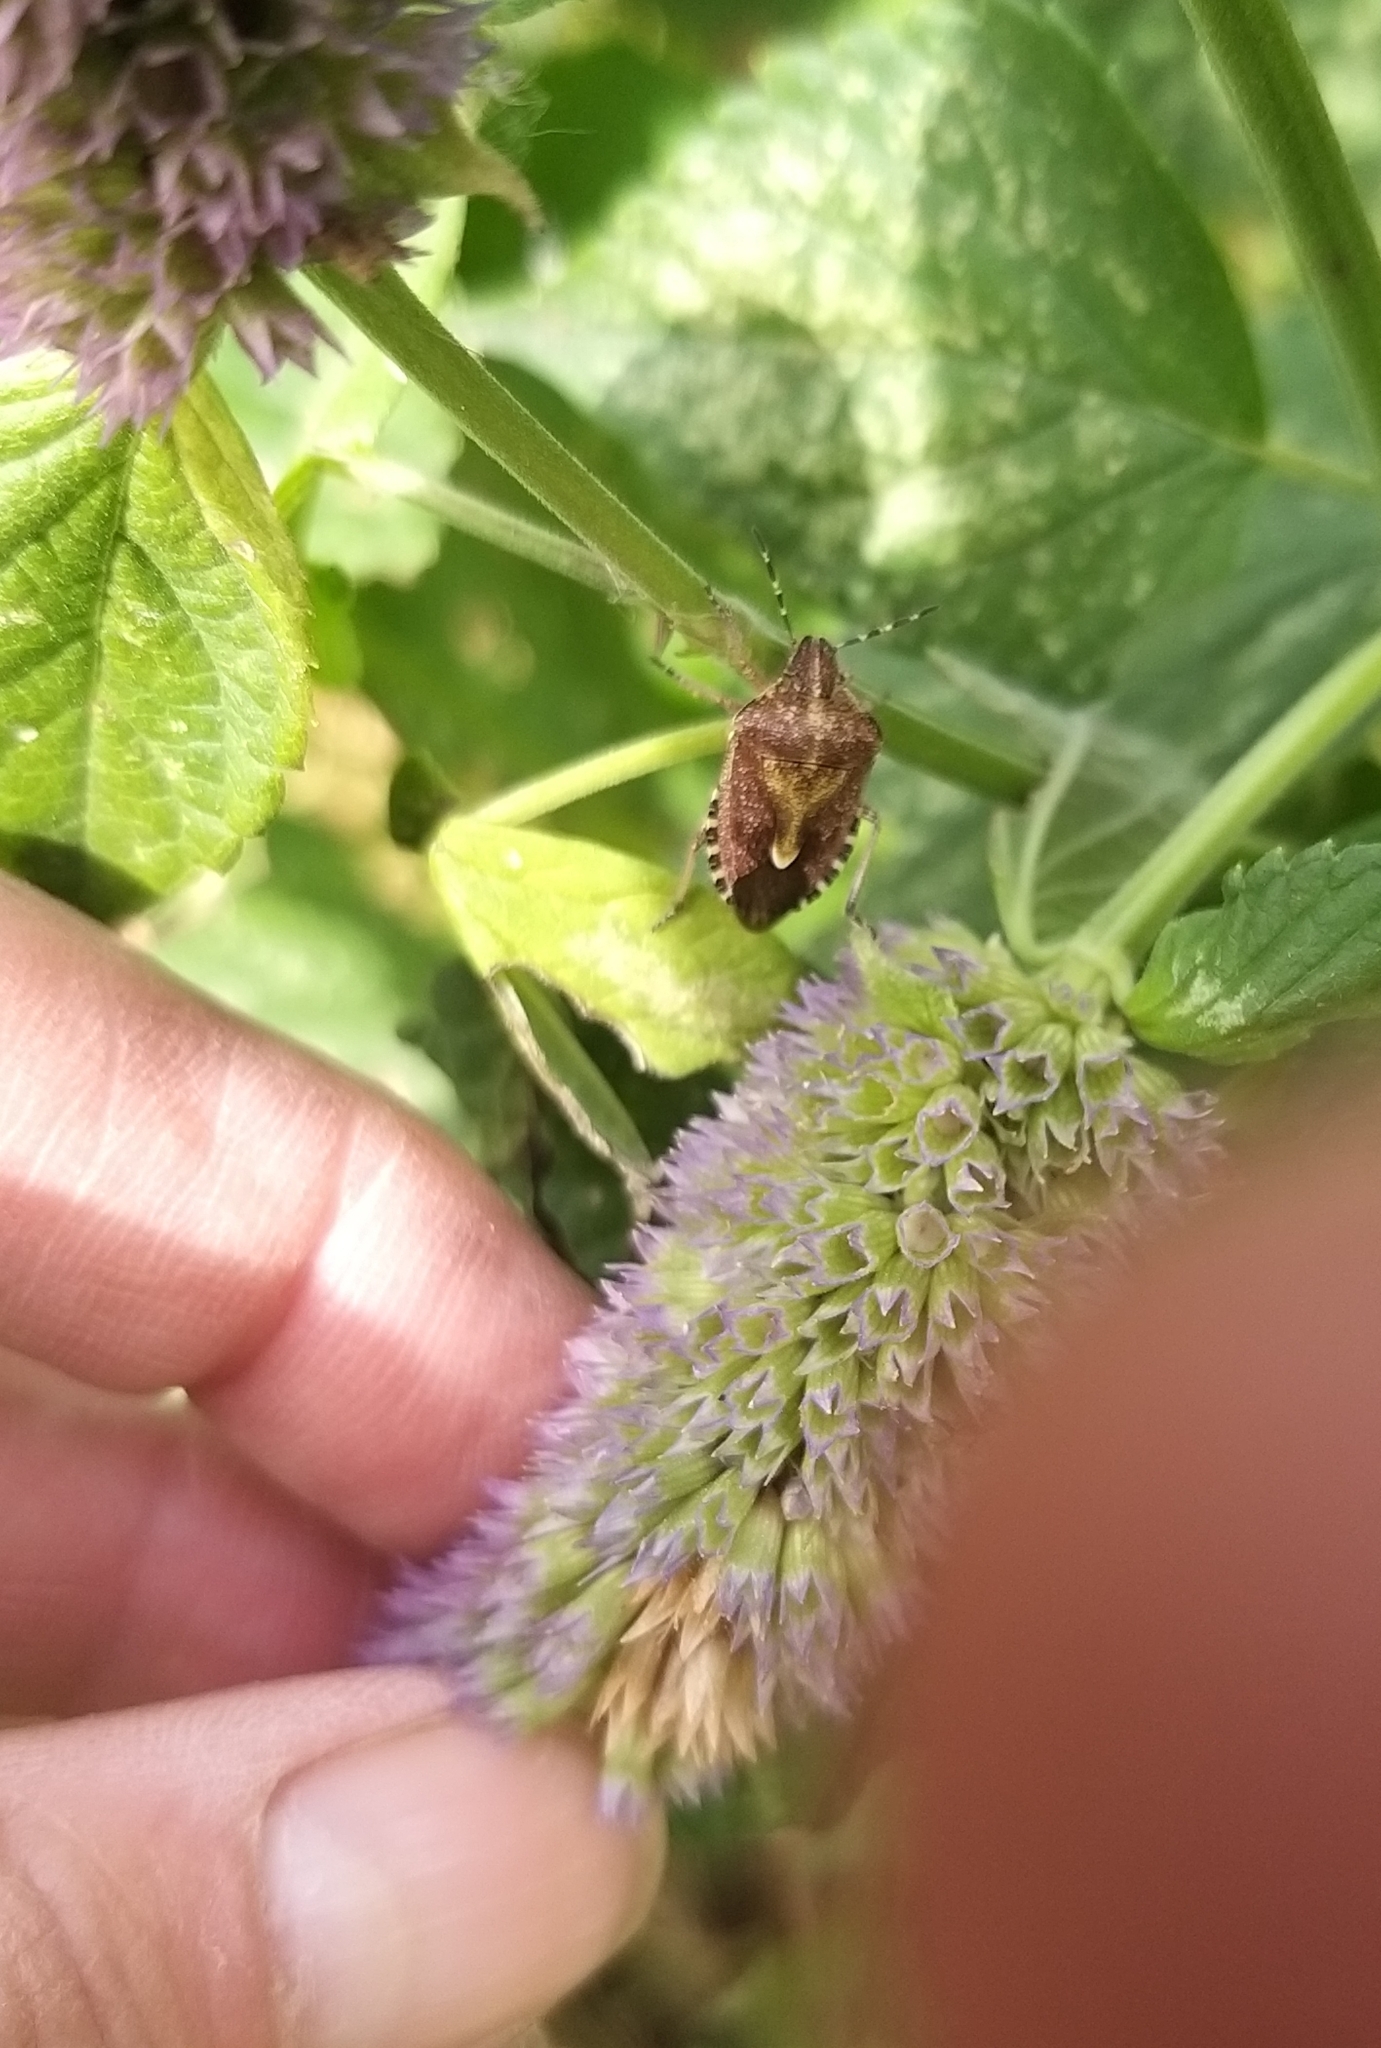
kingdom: Animalia
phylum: Arthropoda
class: Insecta
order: Hemiptera
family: Pentatomidae
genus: Dolycoris
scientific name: Dolycoris baccarum
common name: Sloe bug
